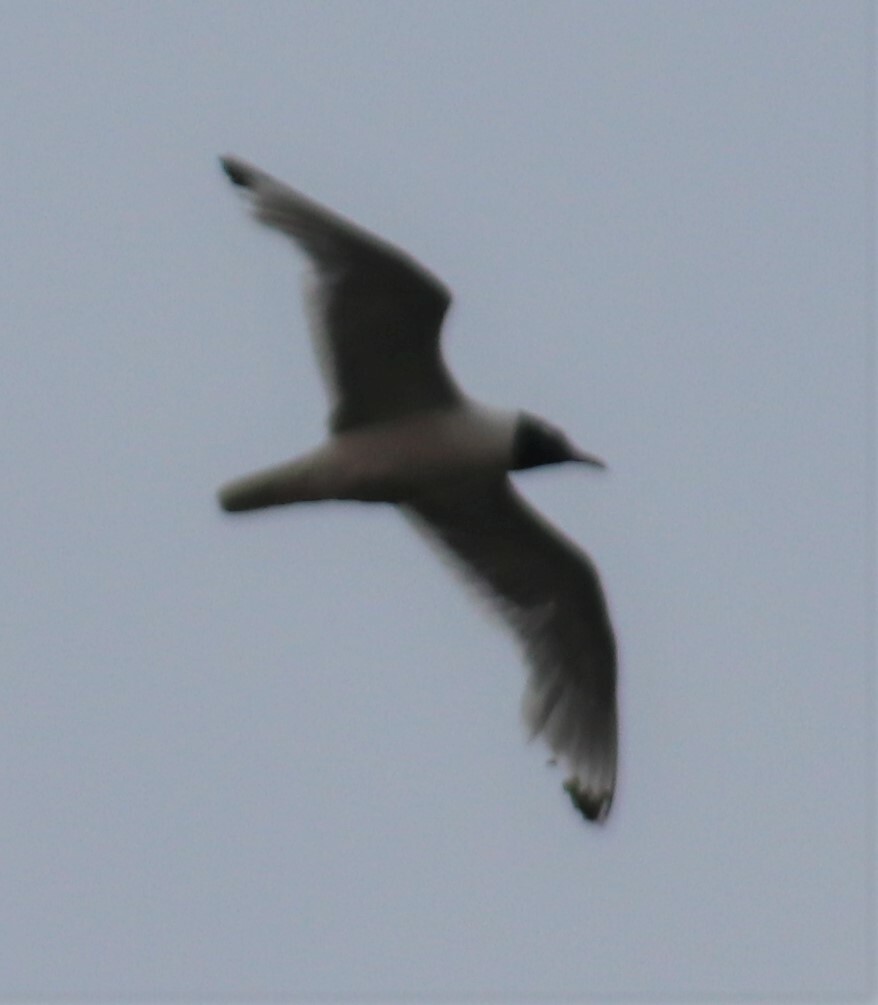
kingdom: Animalia
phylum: Chordata
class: Aves
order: Charadriiformes
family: Laridae
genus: Leucophaeus
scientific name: Leucophaeus pipixcan
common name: Franklin's gull
